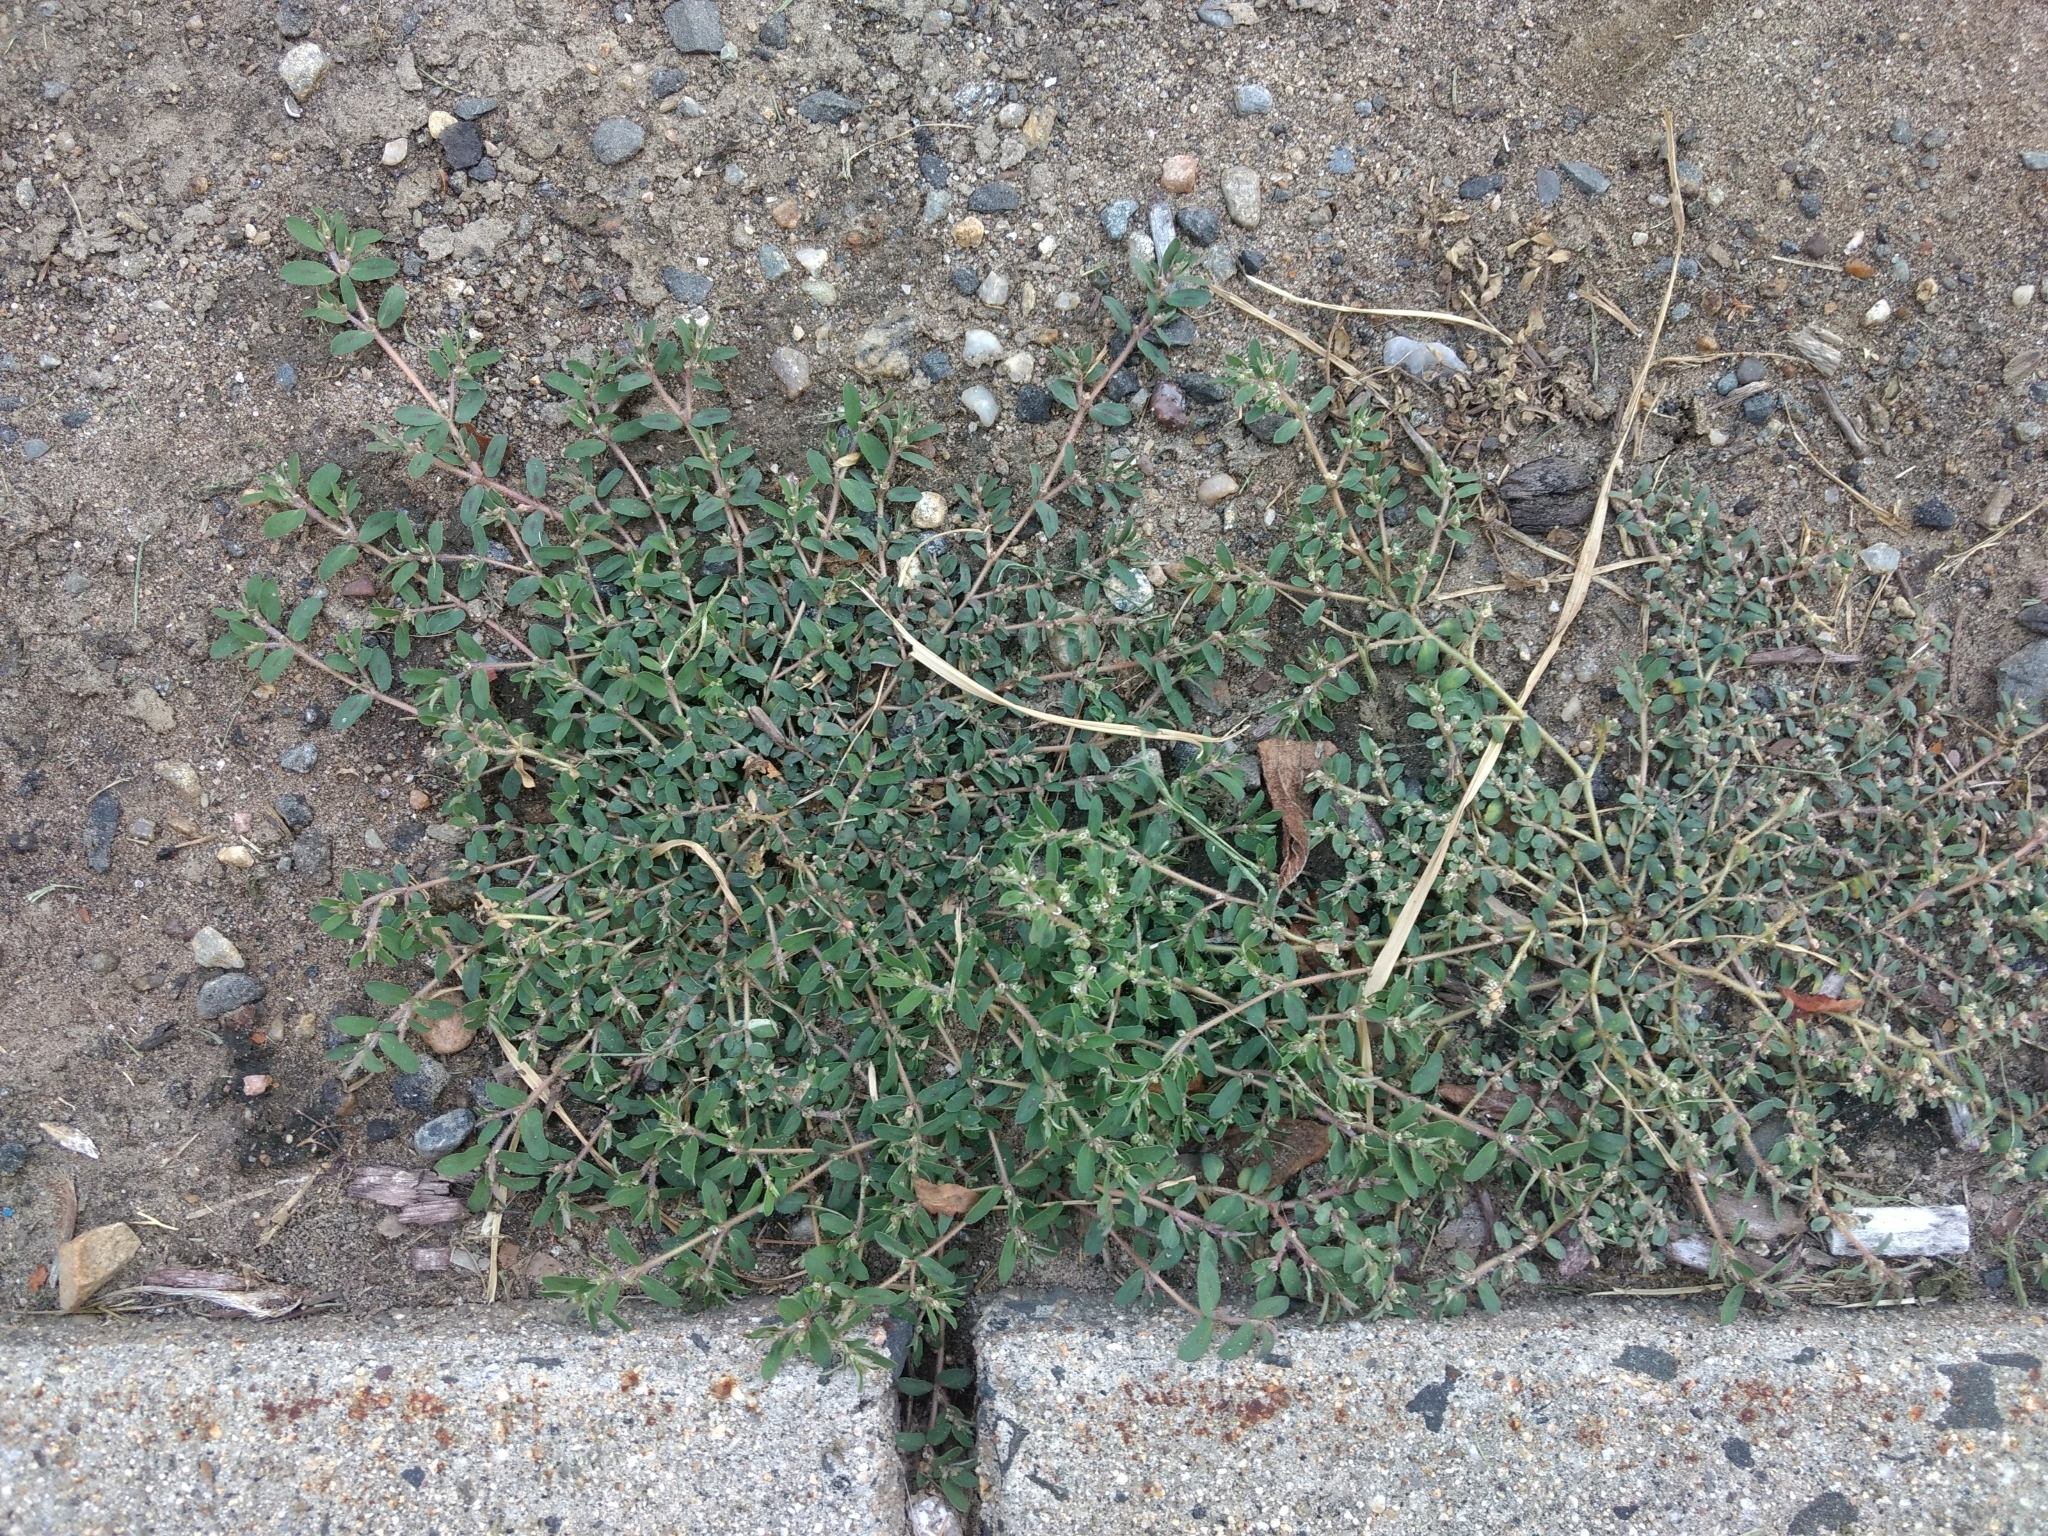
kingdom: Plantae
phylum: Tracheophyta
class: Magnoliopsida
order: Malpighiales
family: Euphorbiaceae
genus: Euphorbia
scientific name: Euphorbia maculata
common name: Spotted spurge
